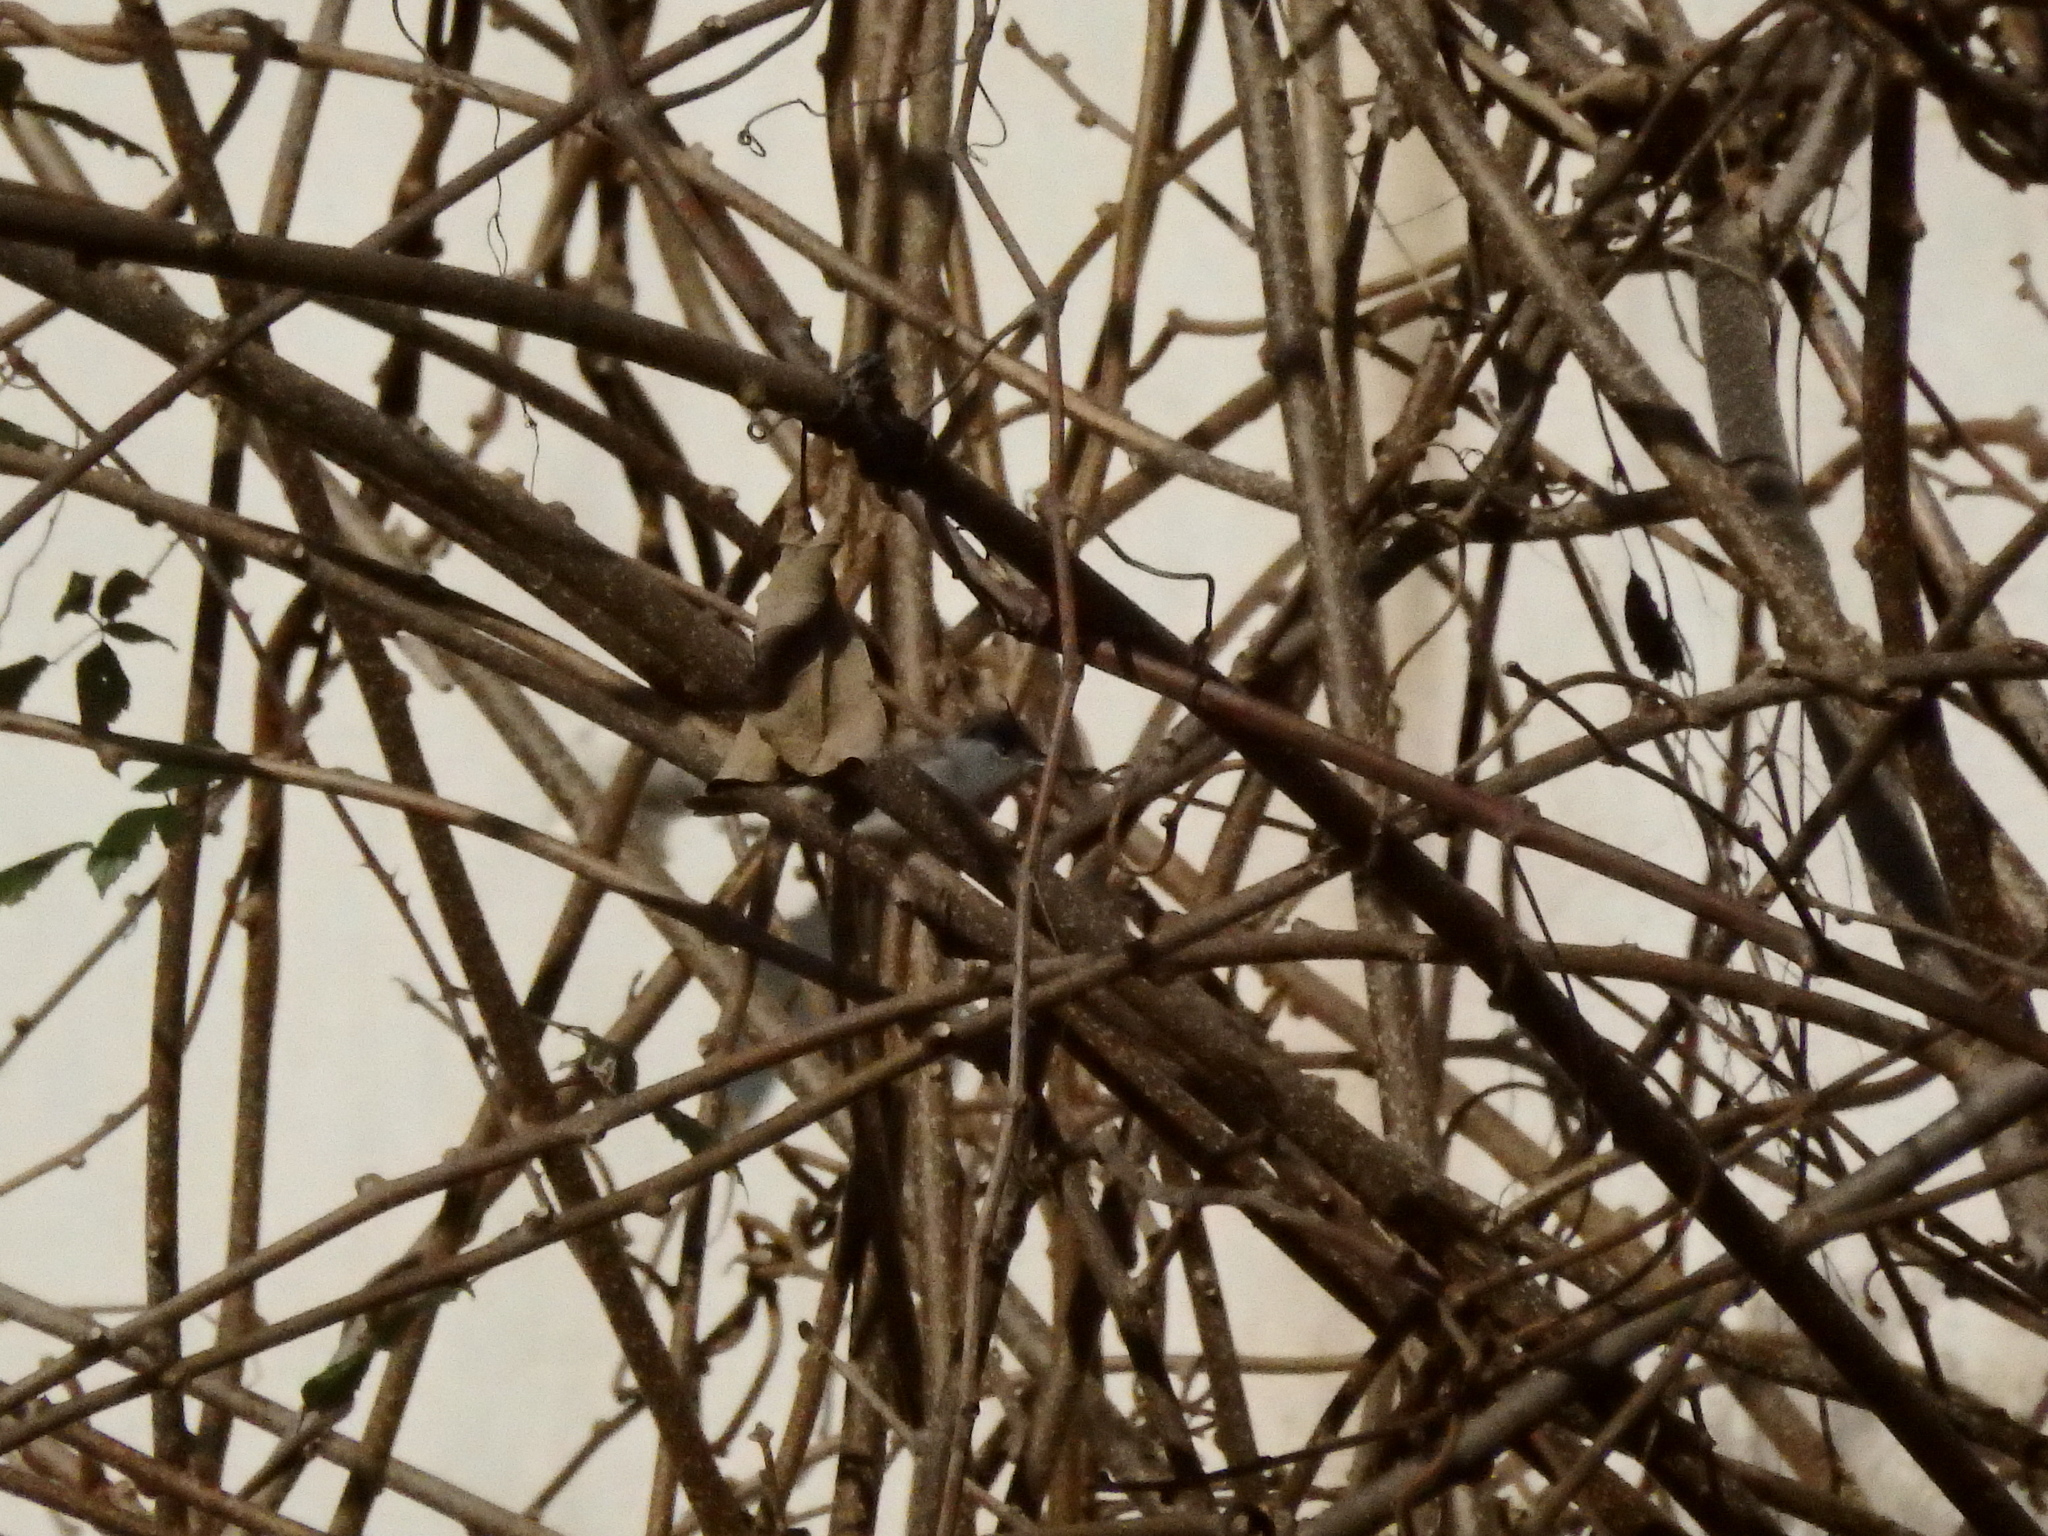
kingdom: Animalia
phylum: Chordata
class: Aves
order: Passeriformes
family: Sylviidae
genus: Sylvia
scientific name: Sylvia atricapilla
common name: Eurasian blackcap
